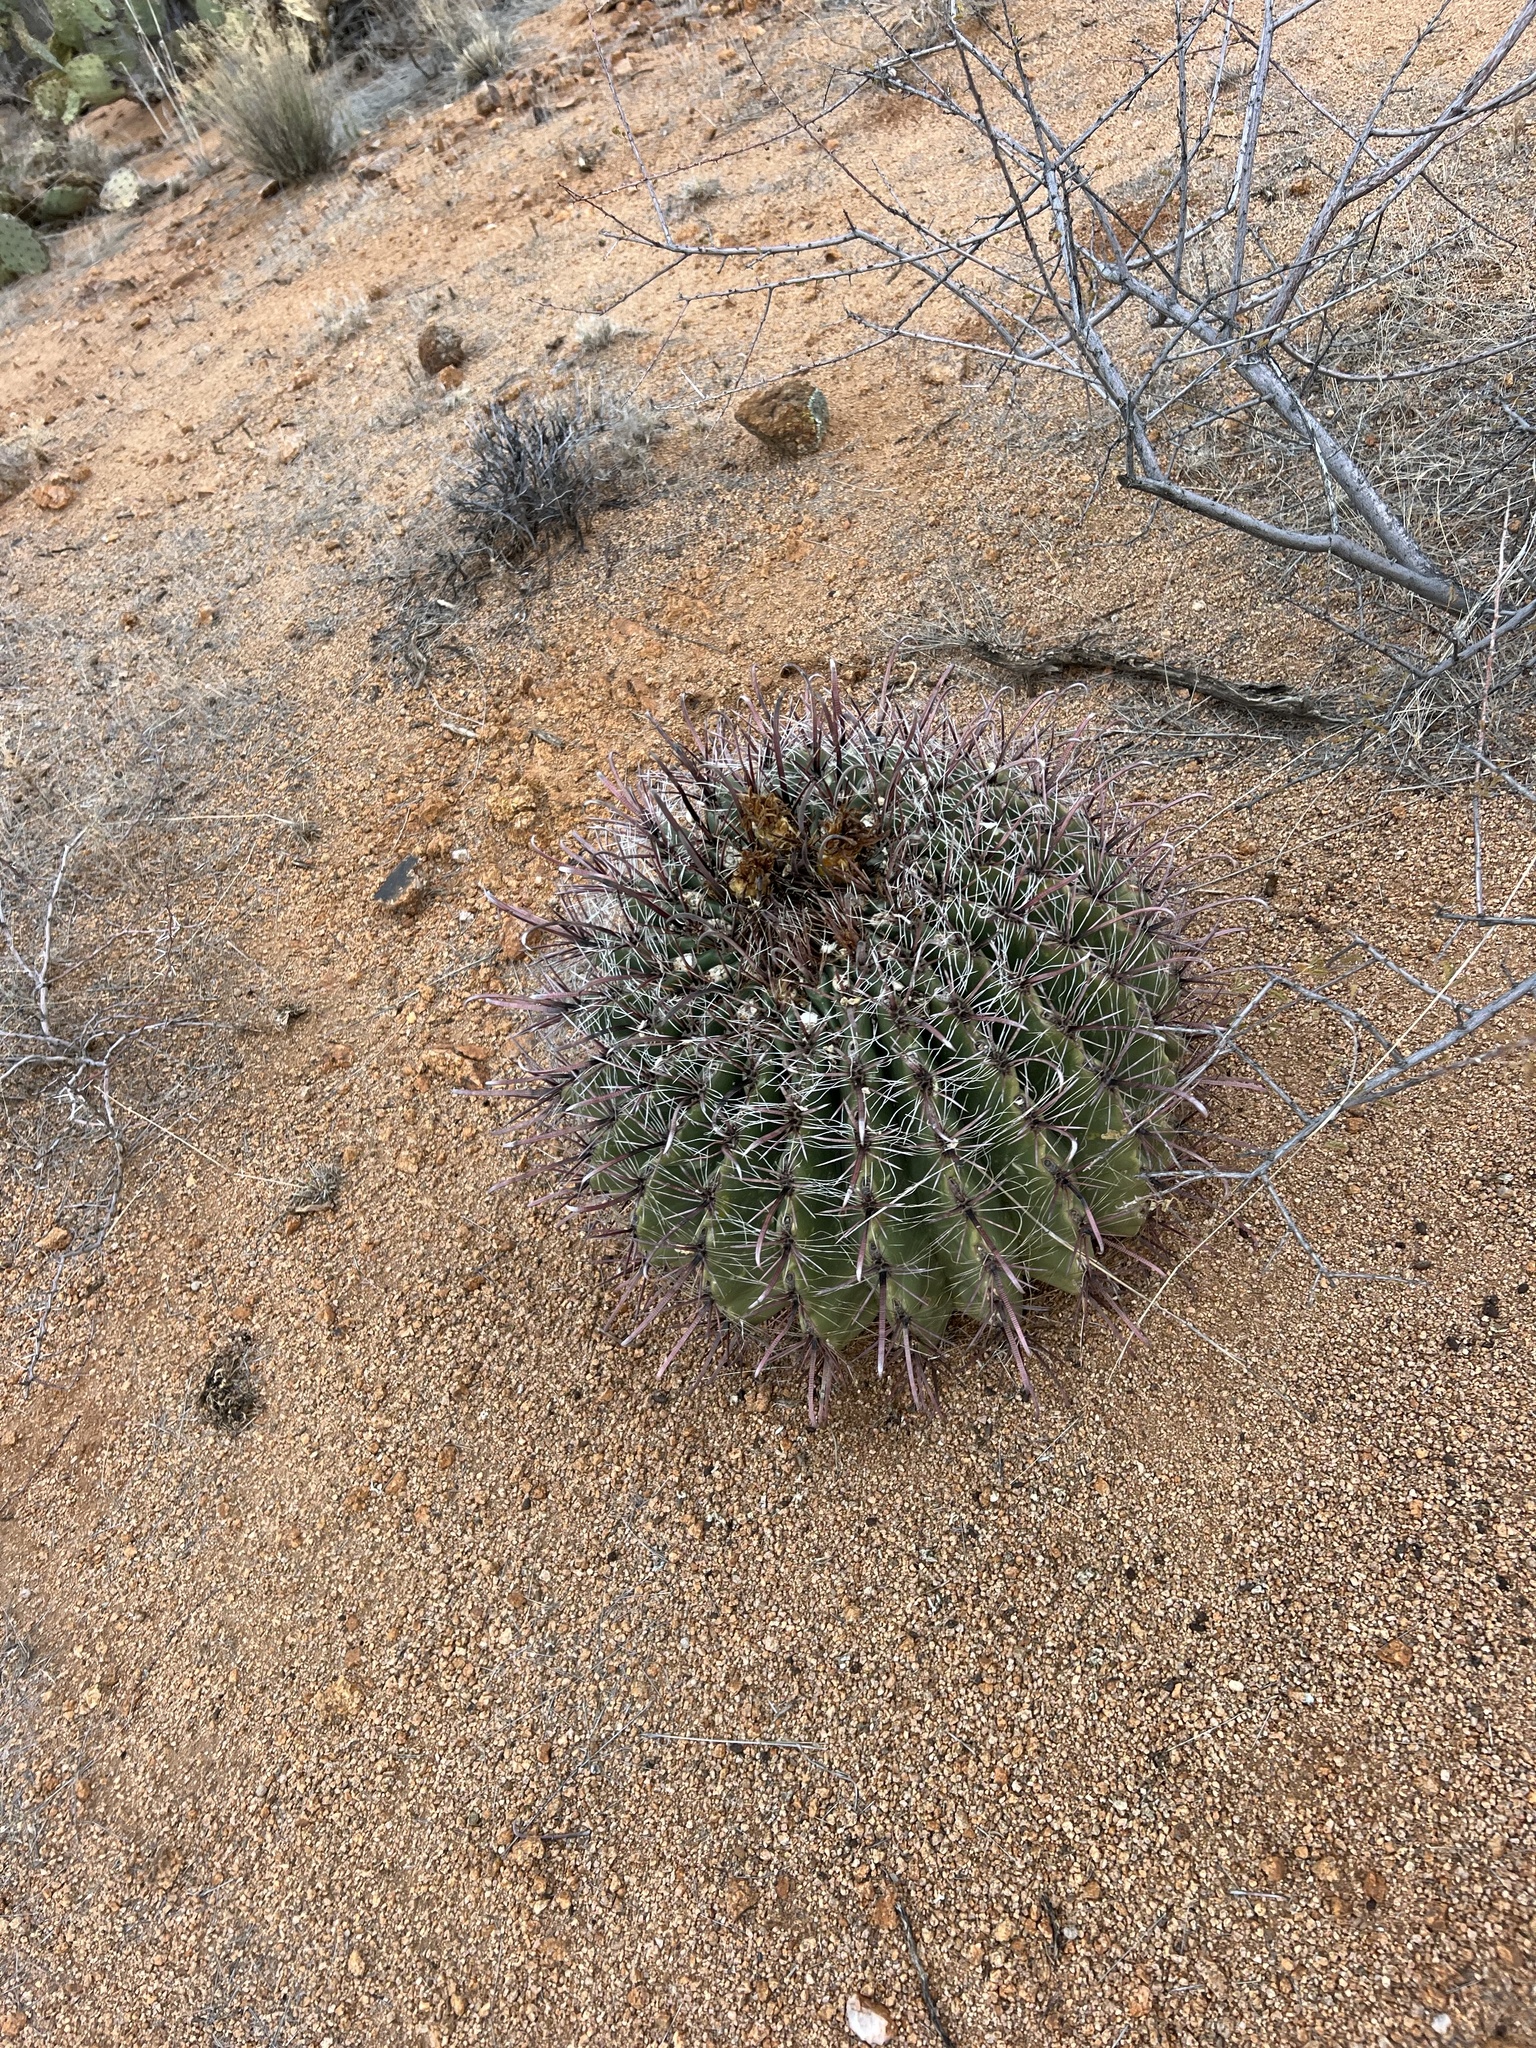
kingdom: Plantae
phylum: Tracheophyta
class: Magnoliopsida
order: Caryophyllales
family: Cactaceae
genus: Ferocactus
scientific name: Ferocactus wislizeni
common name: Candy barrel cactus
